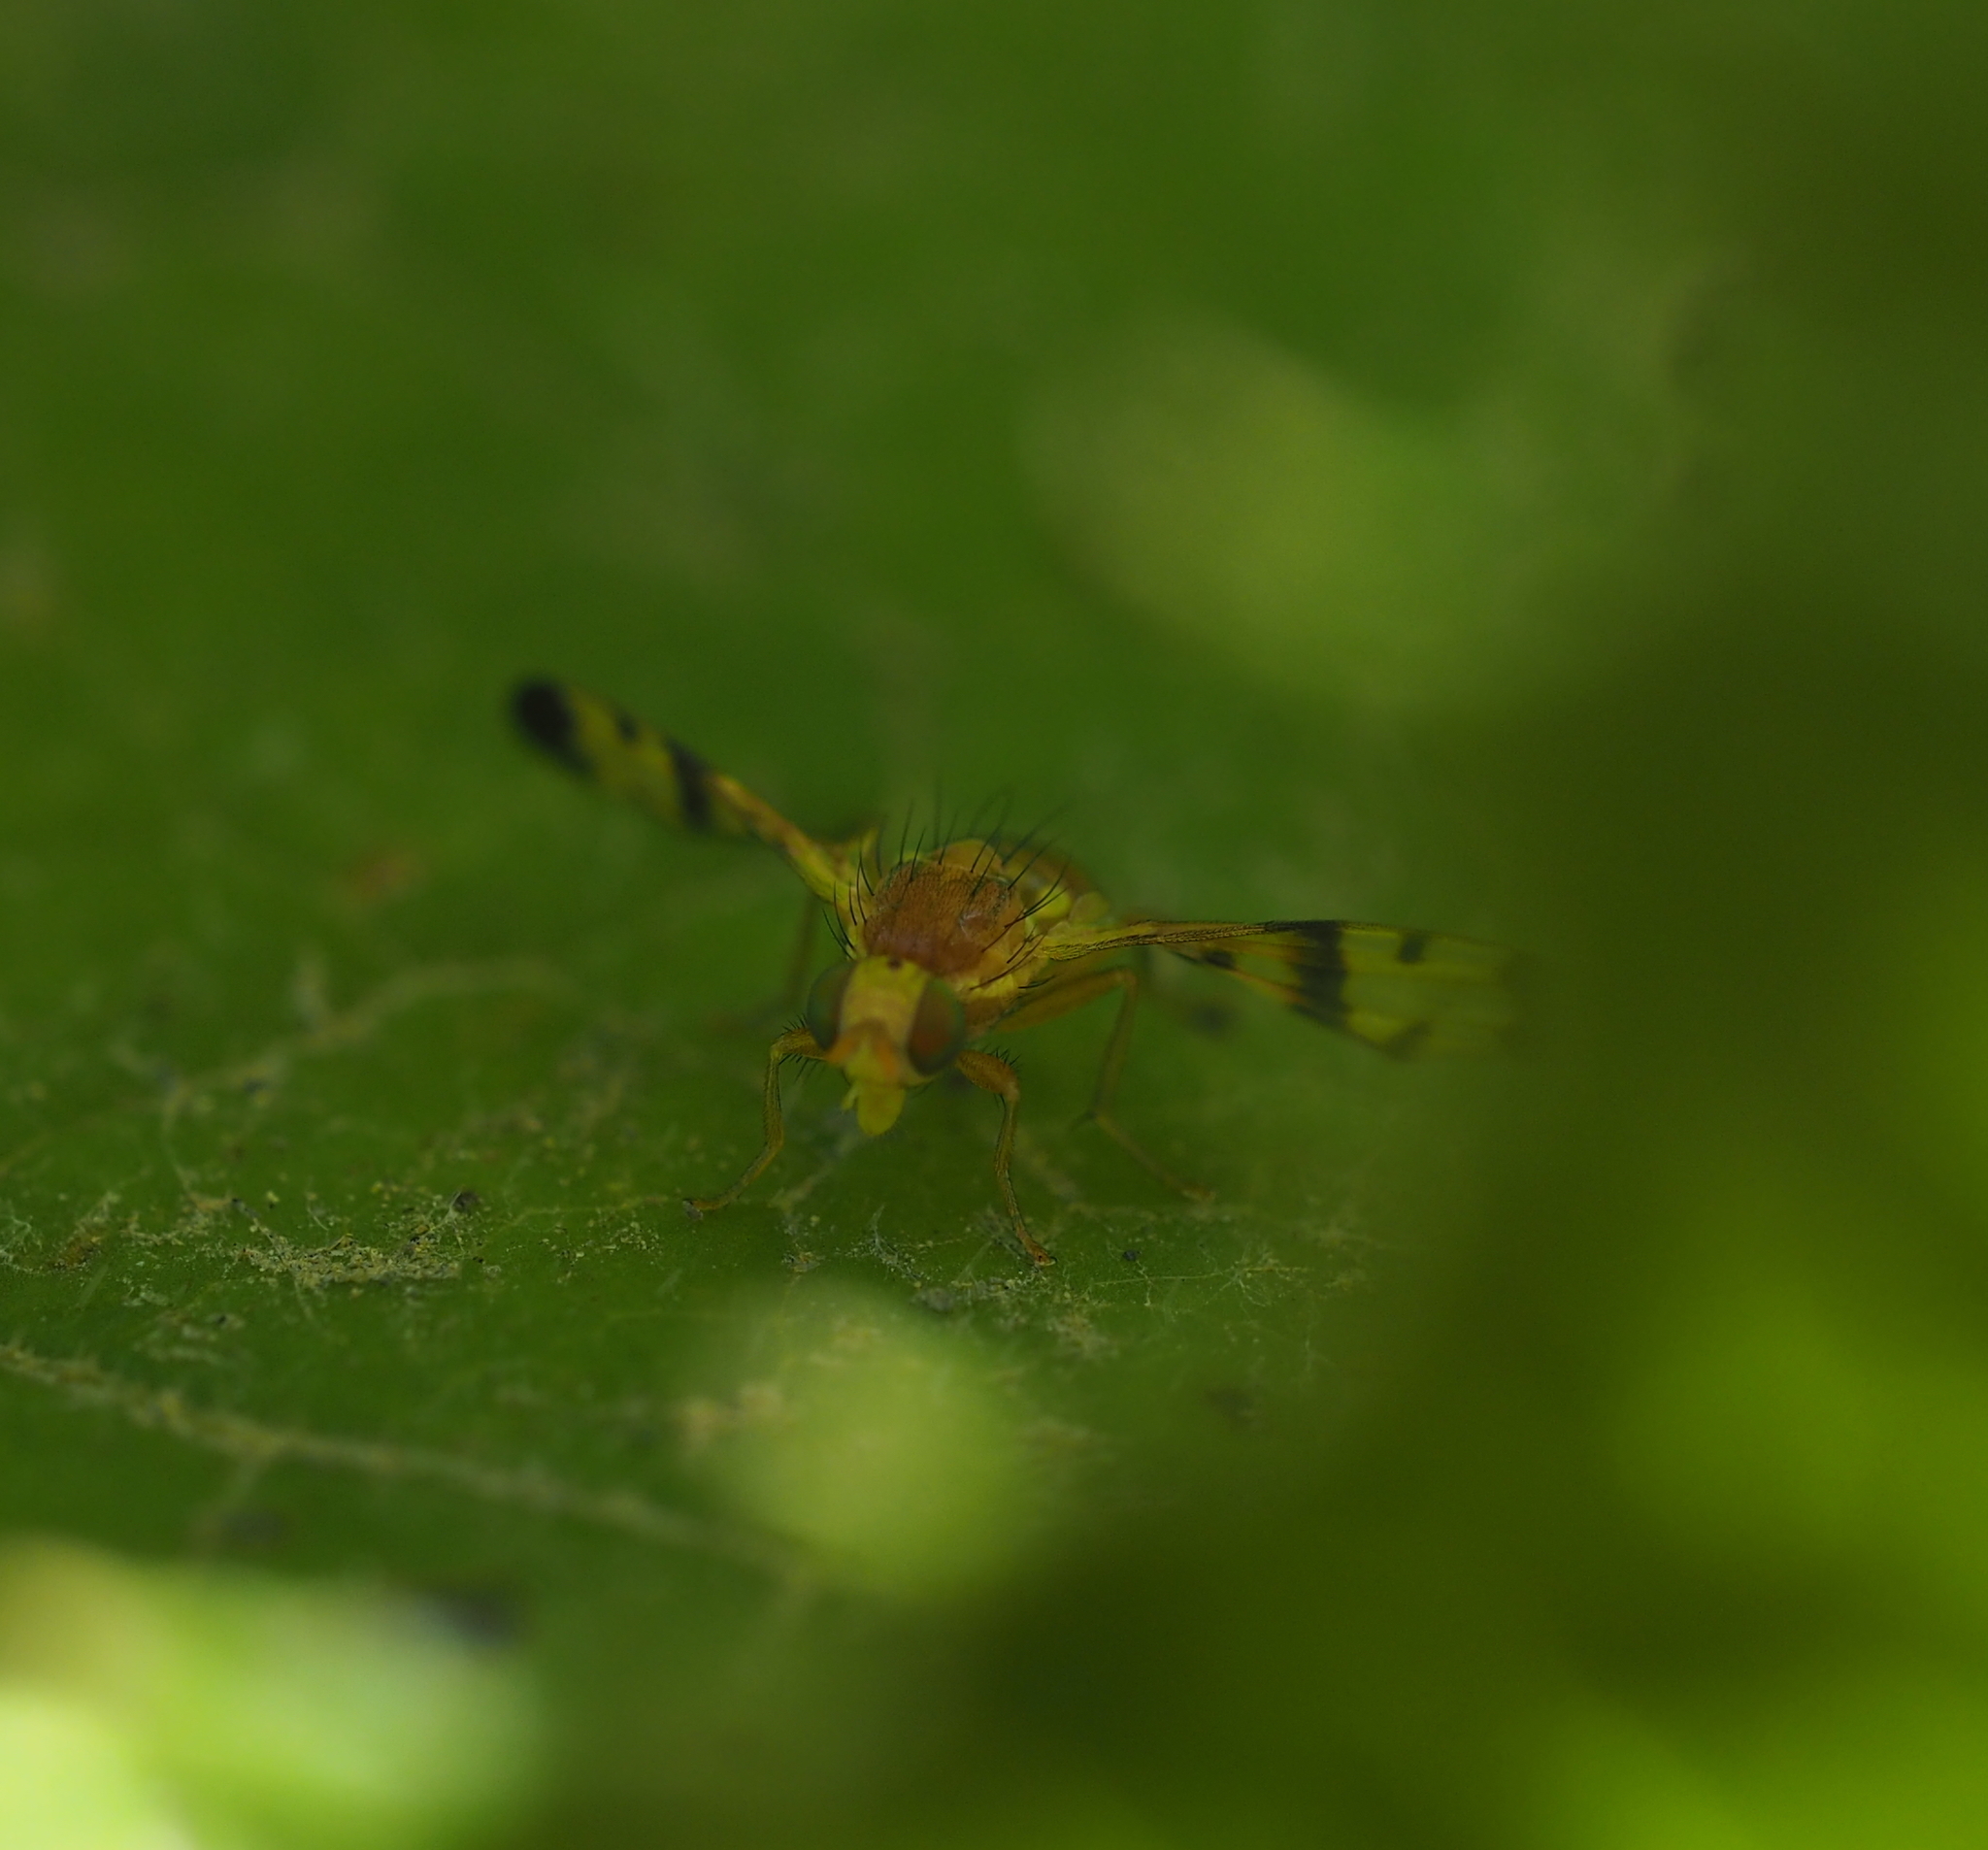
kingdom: Animalia
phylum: Arthropoda
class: Insecta
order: Diptera
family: Tephritidae
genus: Trypeta
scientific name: Trypeta immaculata
